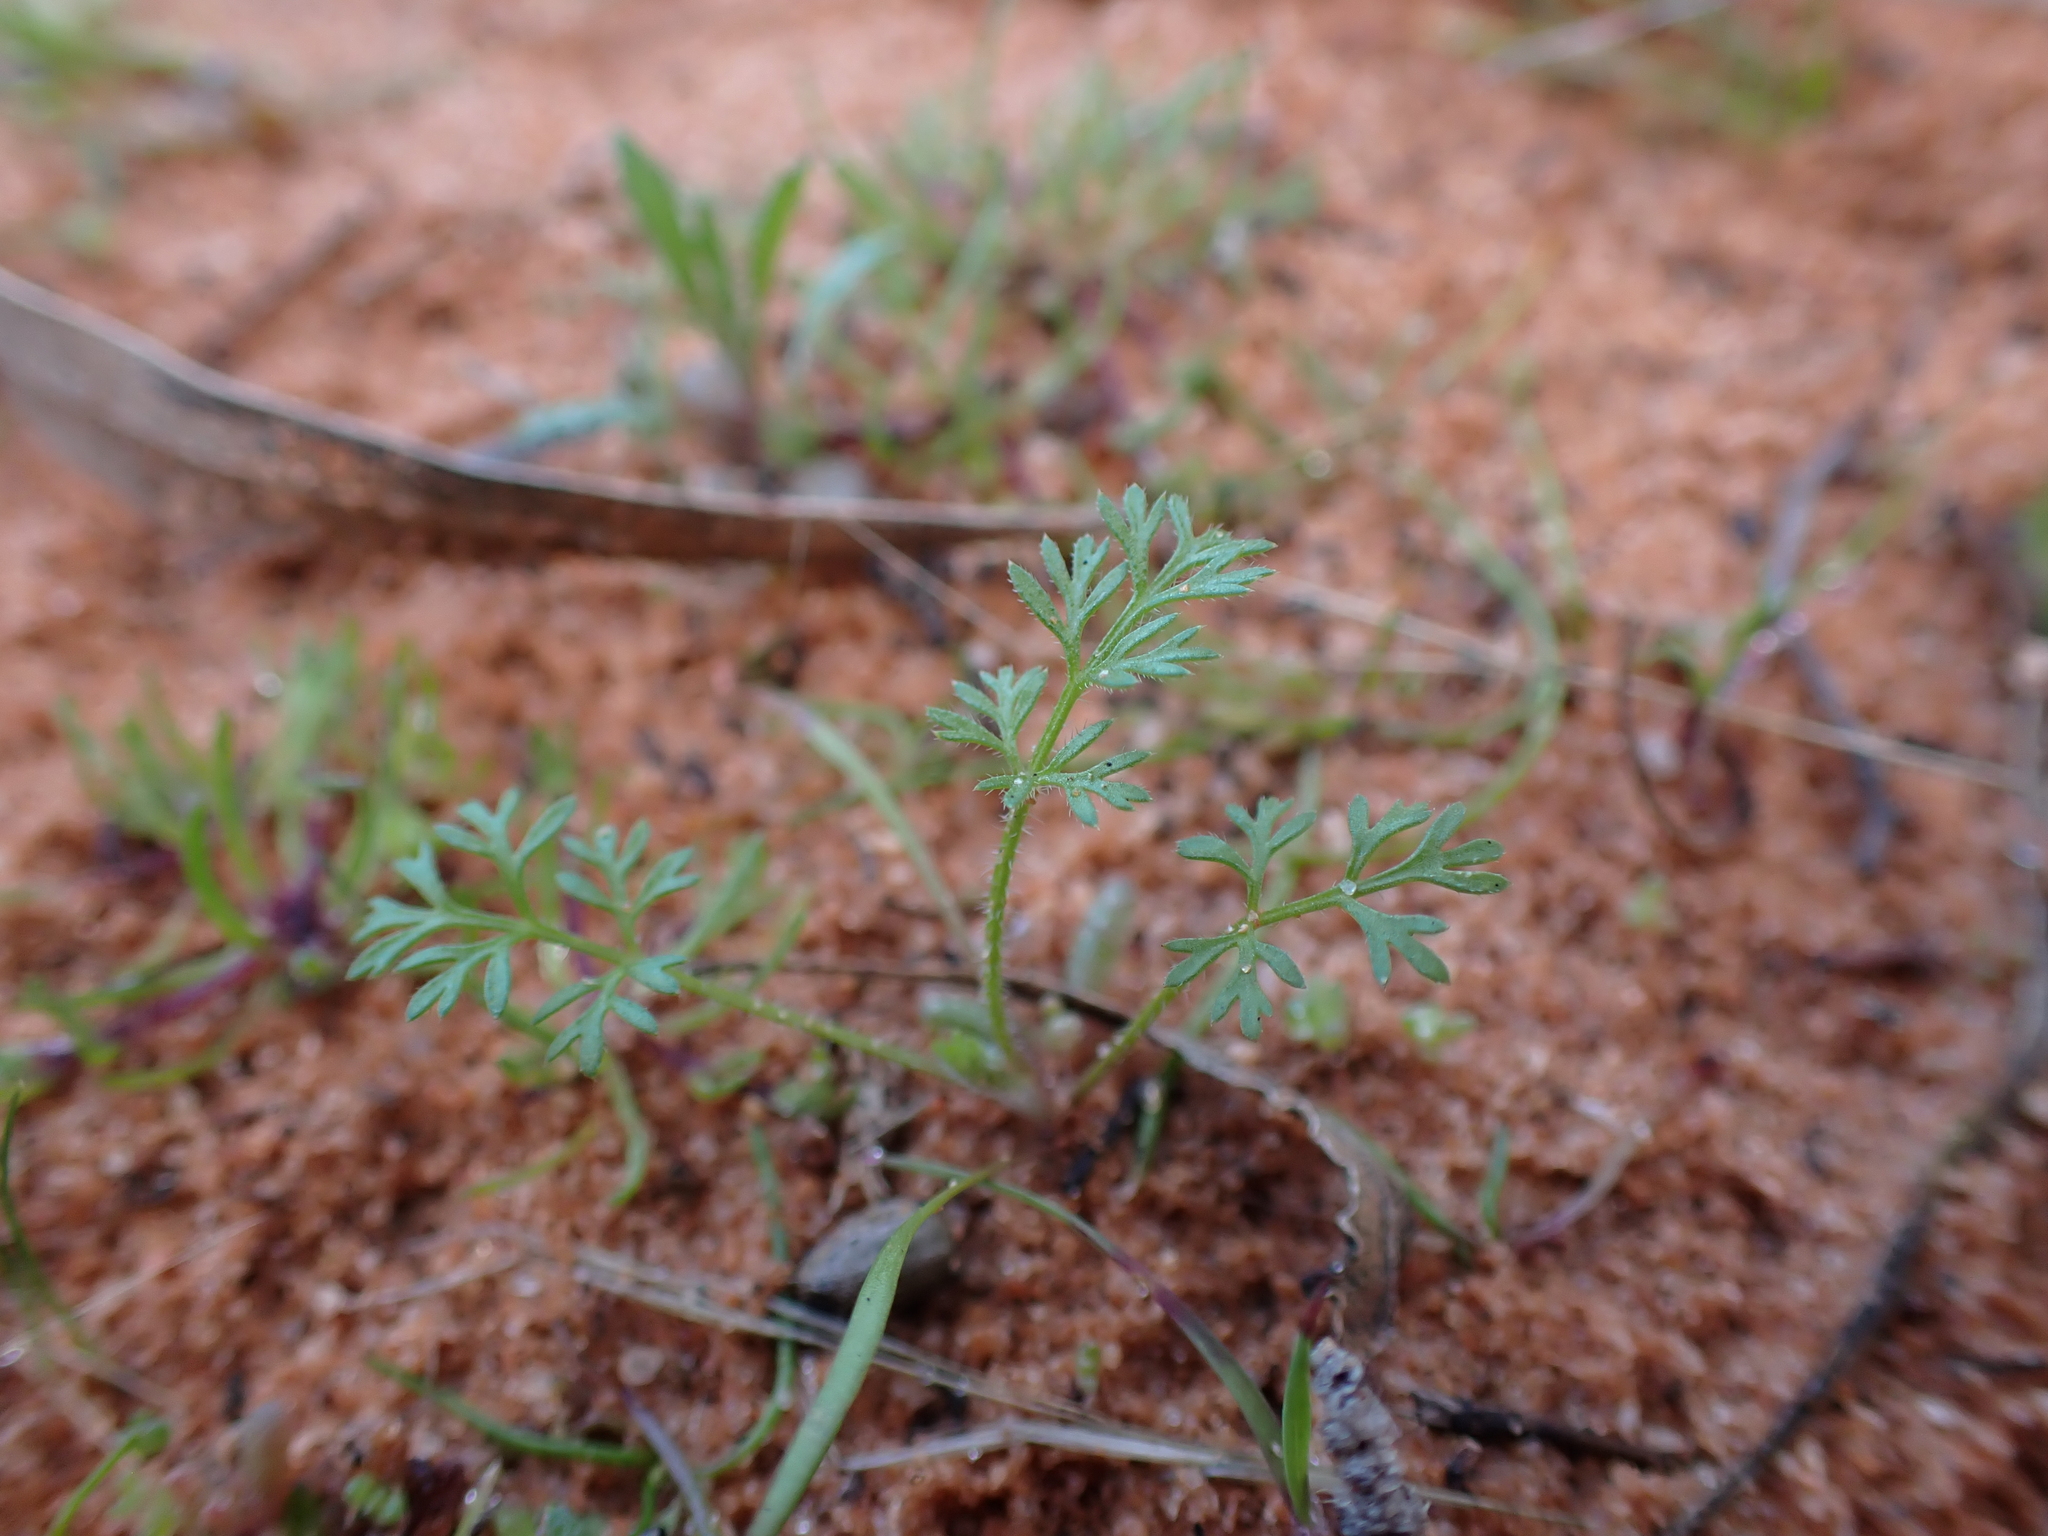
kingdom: Plantae
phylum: Tracheophyta
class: Magnoliopsida
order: Apiales
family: Apiaceae
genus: Daucus
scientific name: Daucus glochidiatus
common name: Australian carrot
